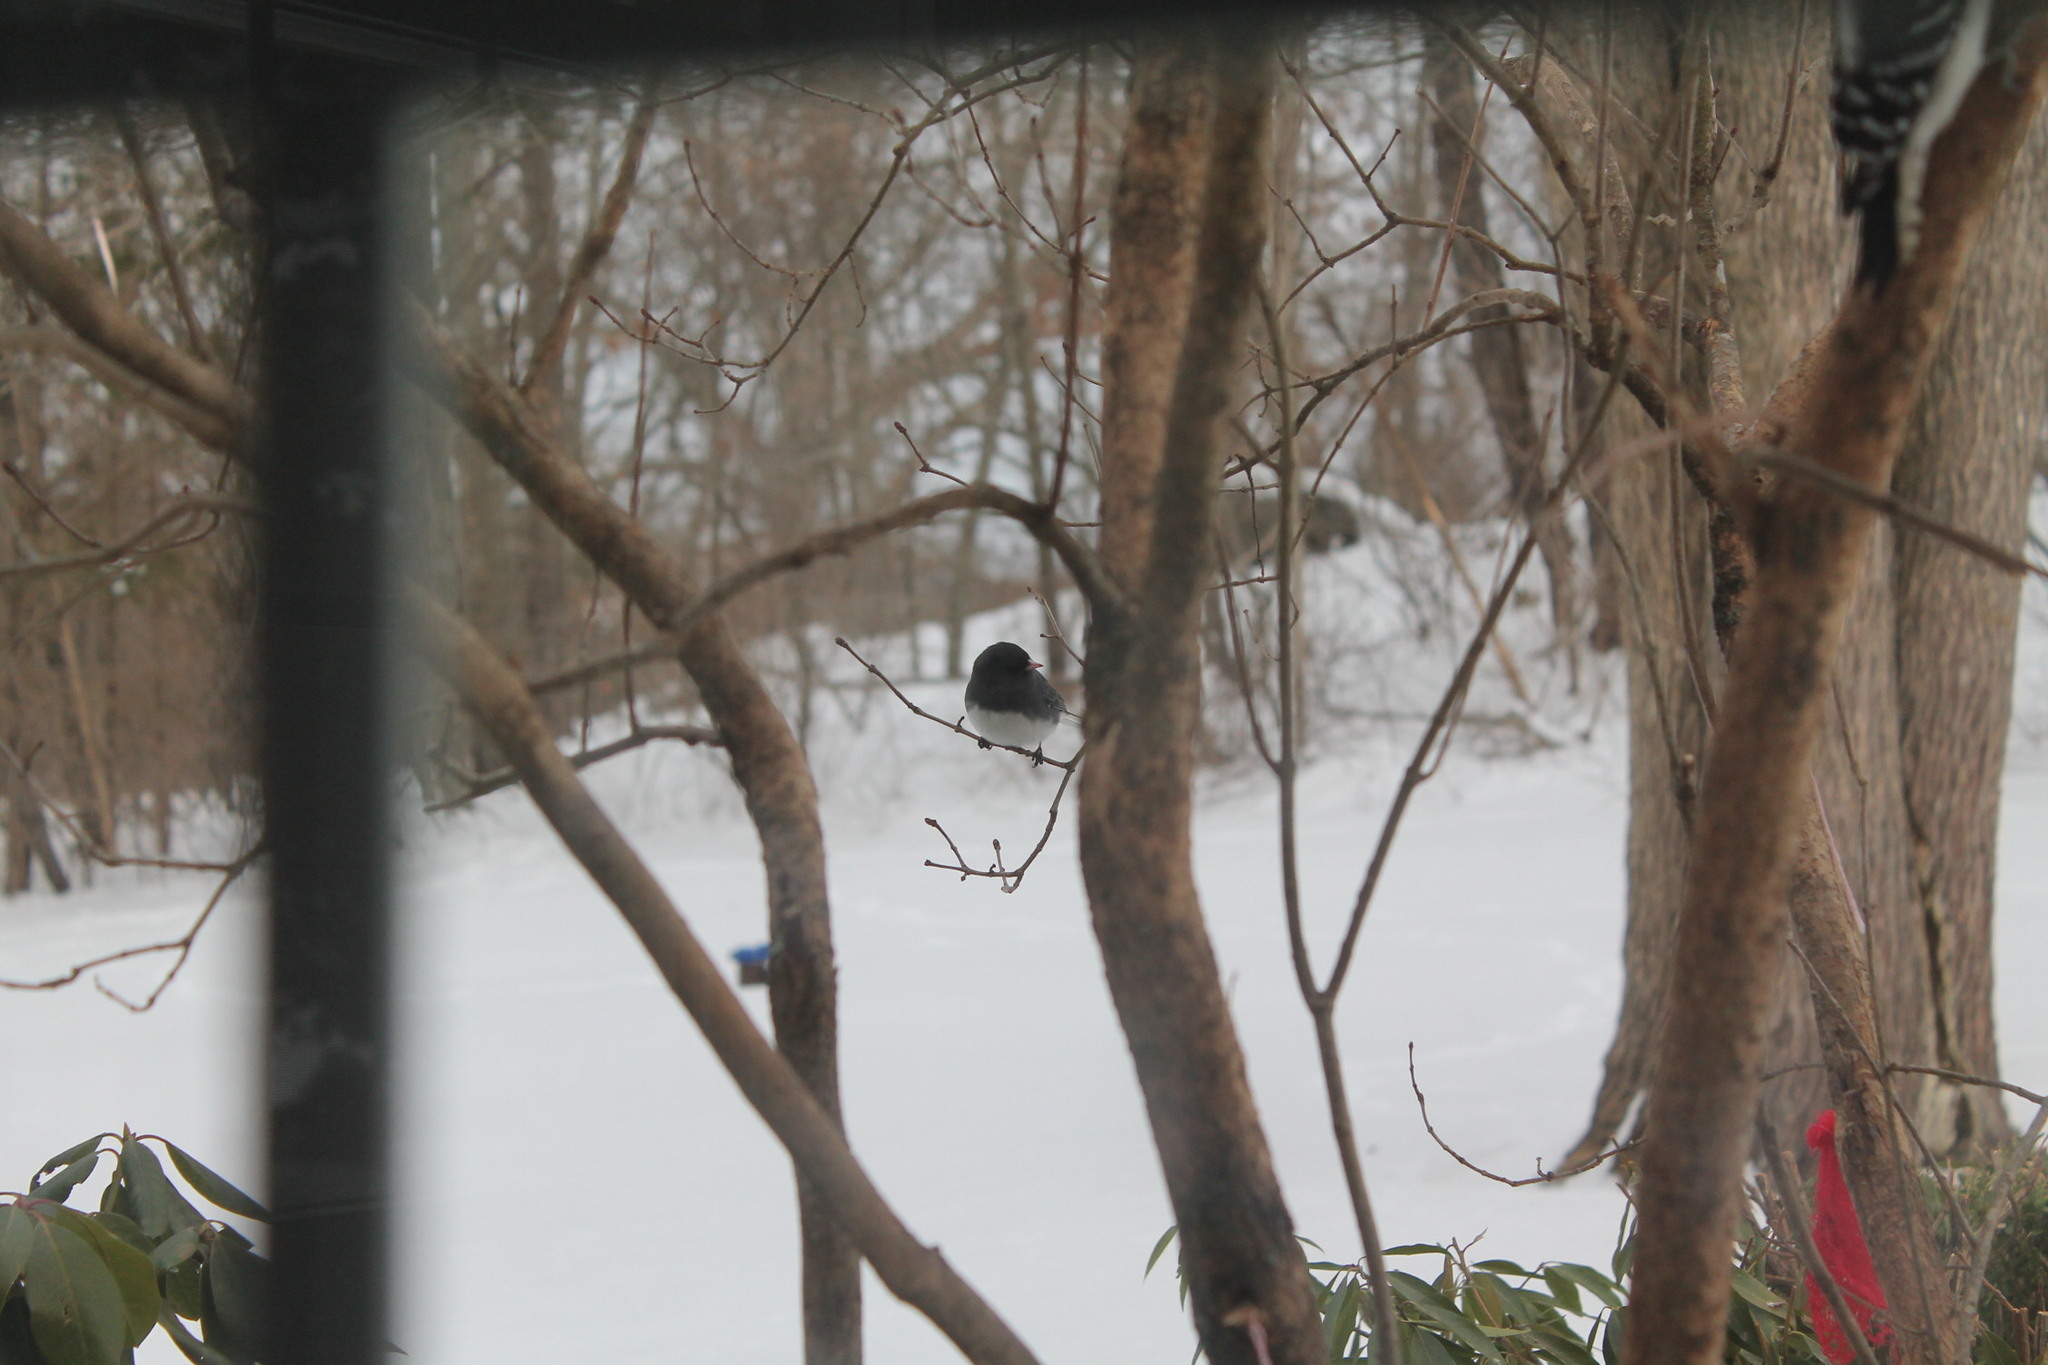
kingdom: Animalia
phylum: Chordata
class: Aves
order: Passeriformes
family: Passerellidae
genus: Junco
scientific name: Junco hyemalis
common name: Dark-eyed junco
